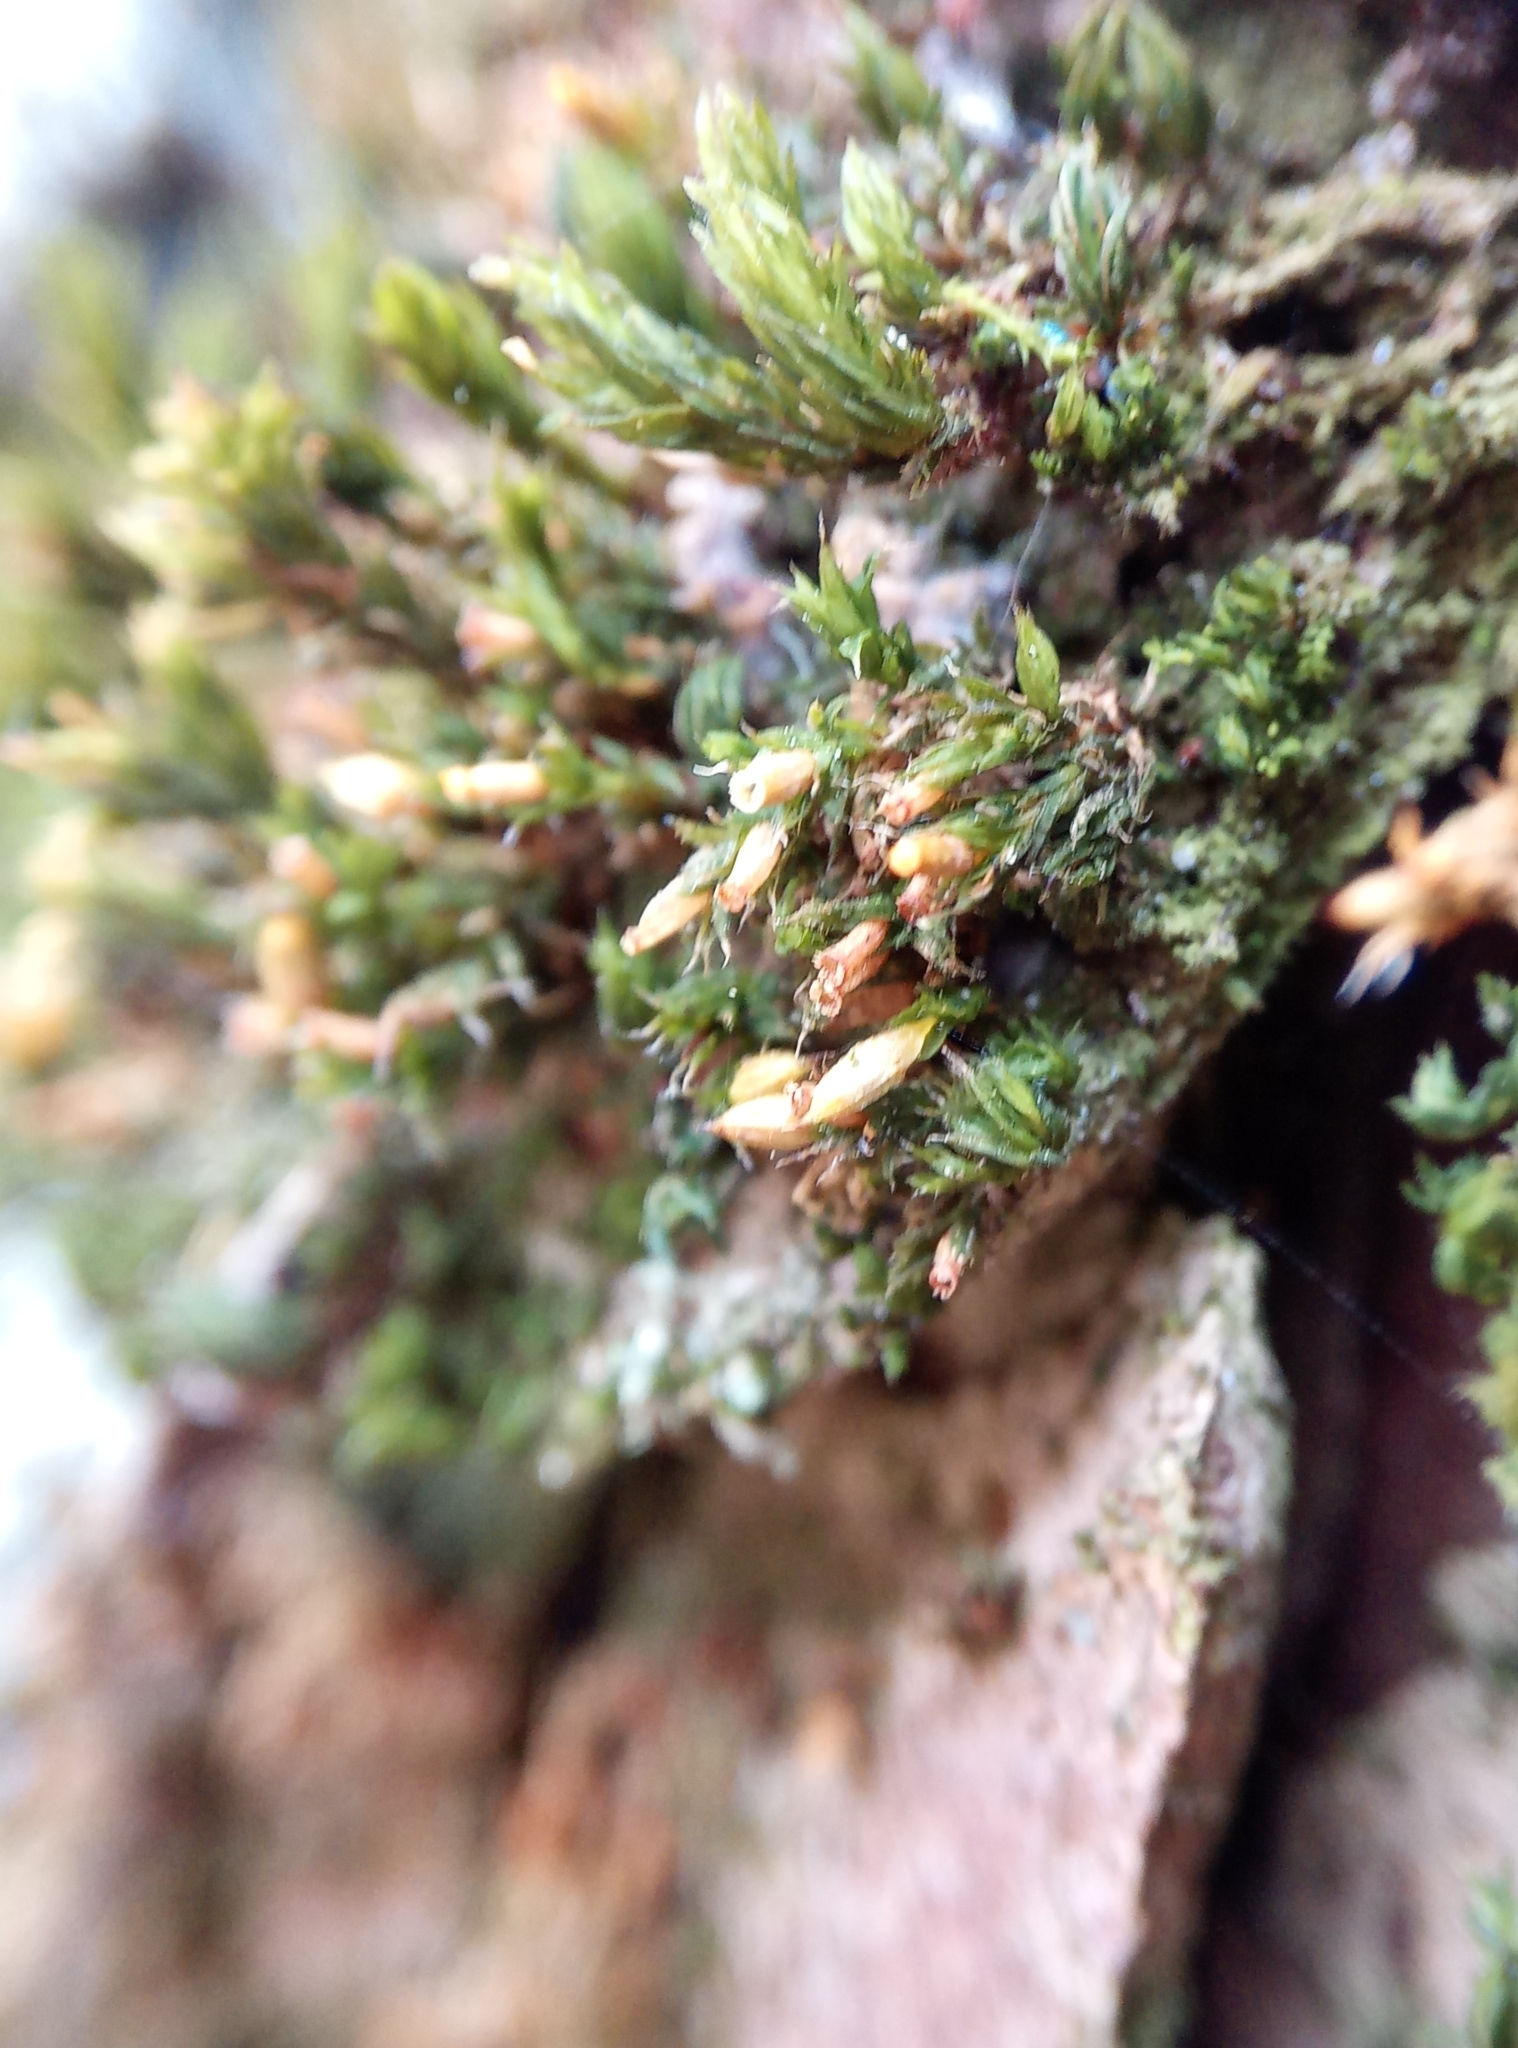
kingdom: Plantae
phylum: Bryophyta
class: Bryopsida
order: Orthotrichales
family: Orthotrichaceae
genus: Orthotrichum
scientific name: Orthotrichum diaphanum
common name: White-tipped bristle-moss
